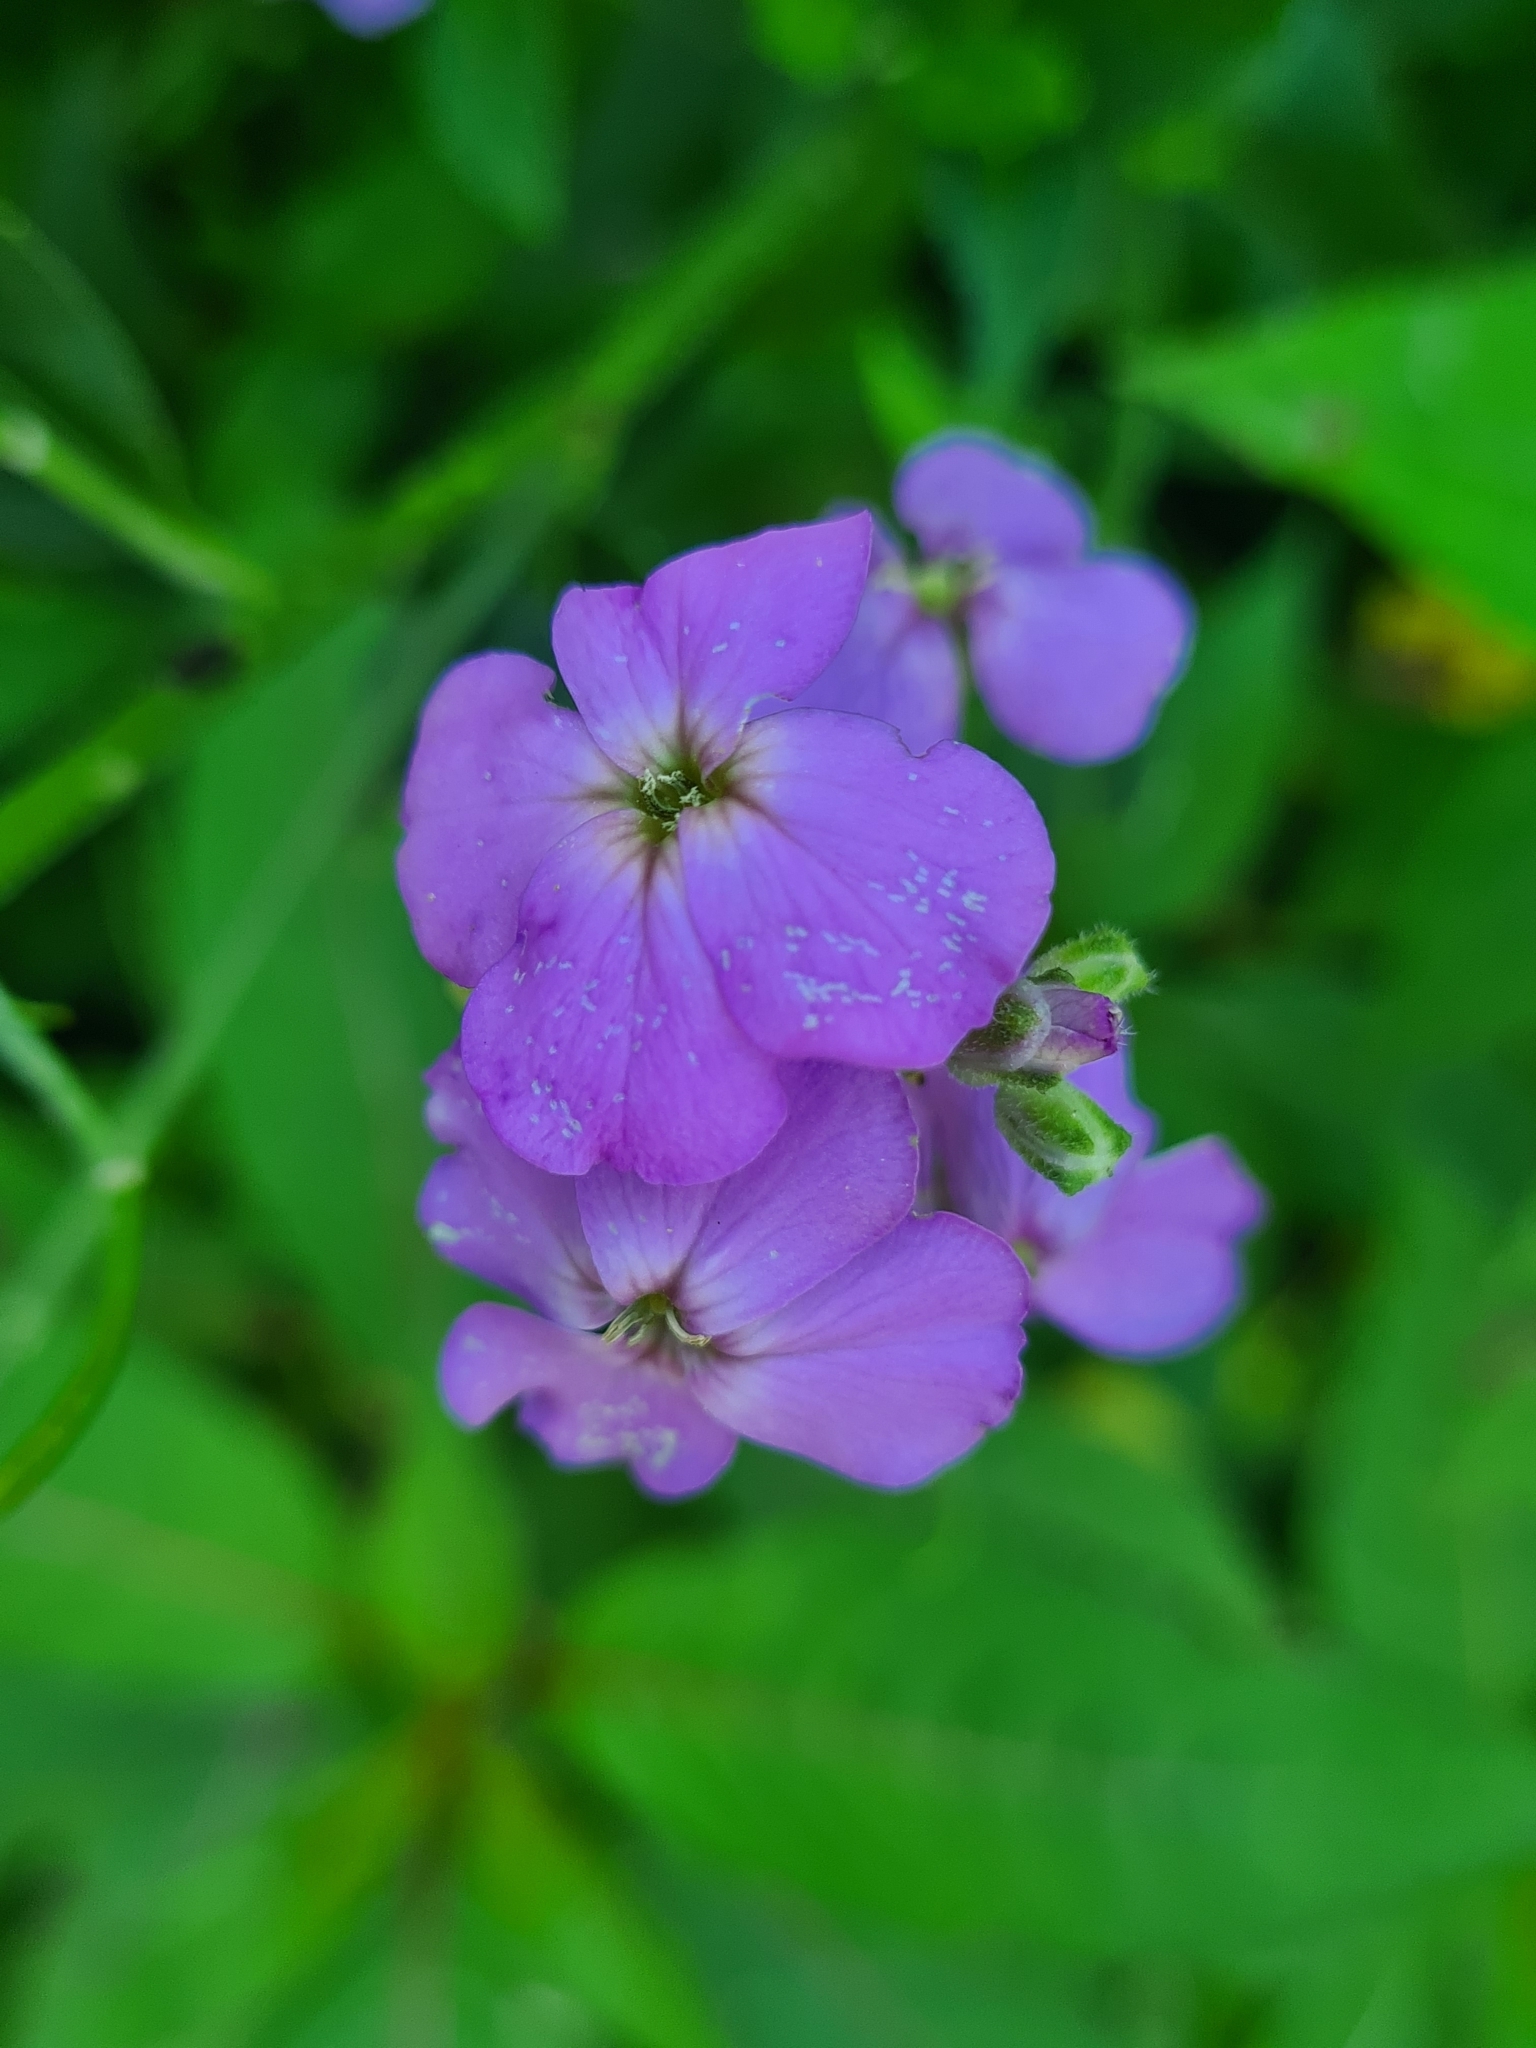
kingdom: Plantae
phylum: Tracheophyta
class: Magnoliopsida
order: Brassicales
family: Brassicaceae
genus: Hesperis
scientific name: Hesperis matronalis
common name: Dame's-violet
